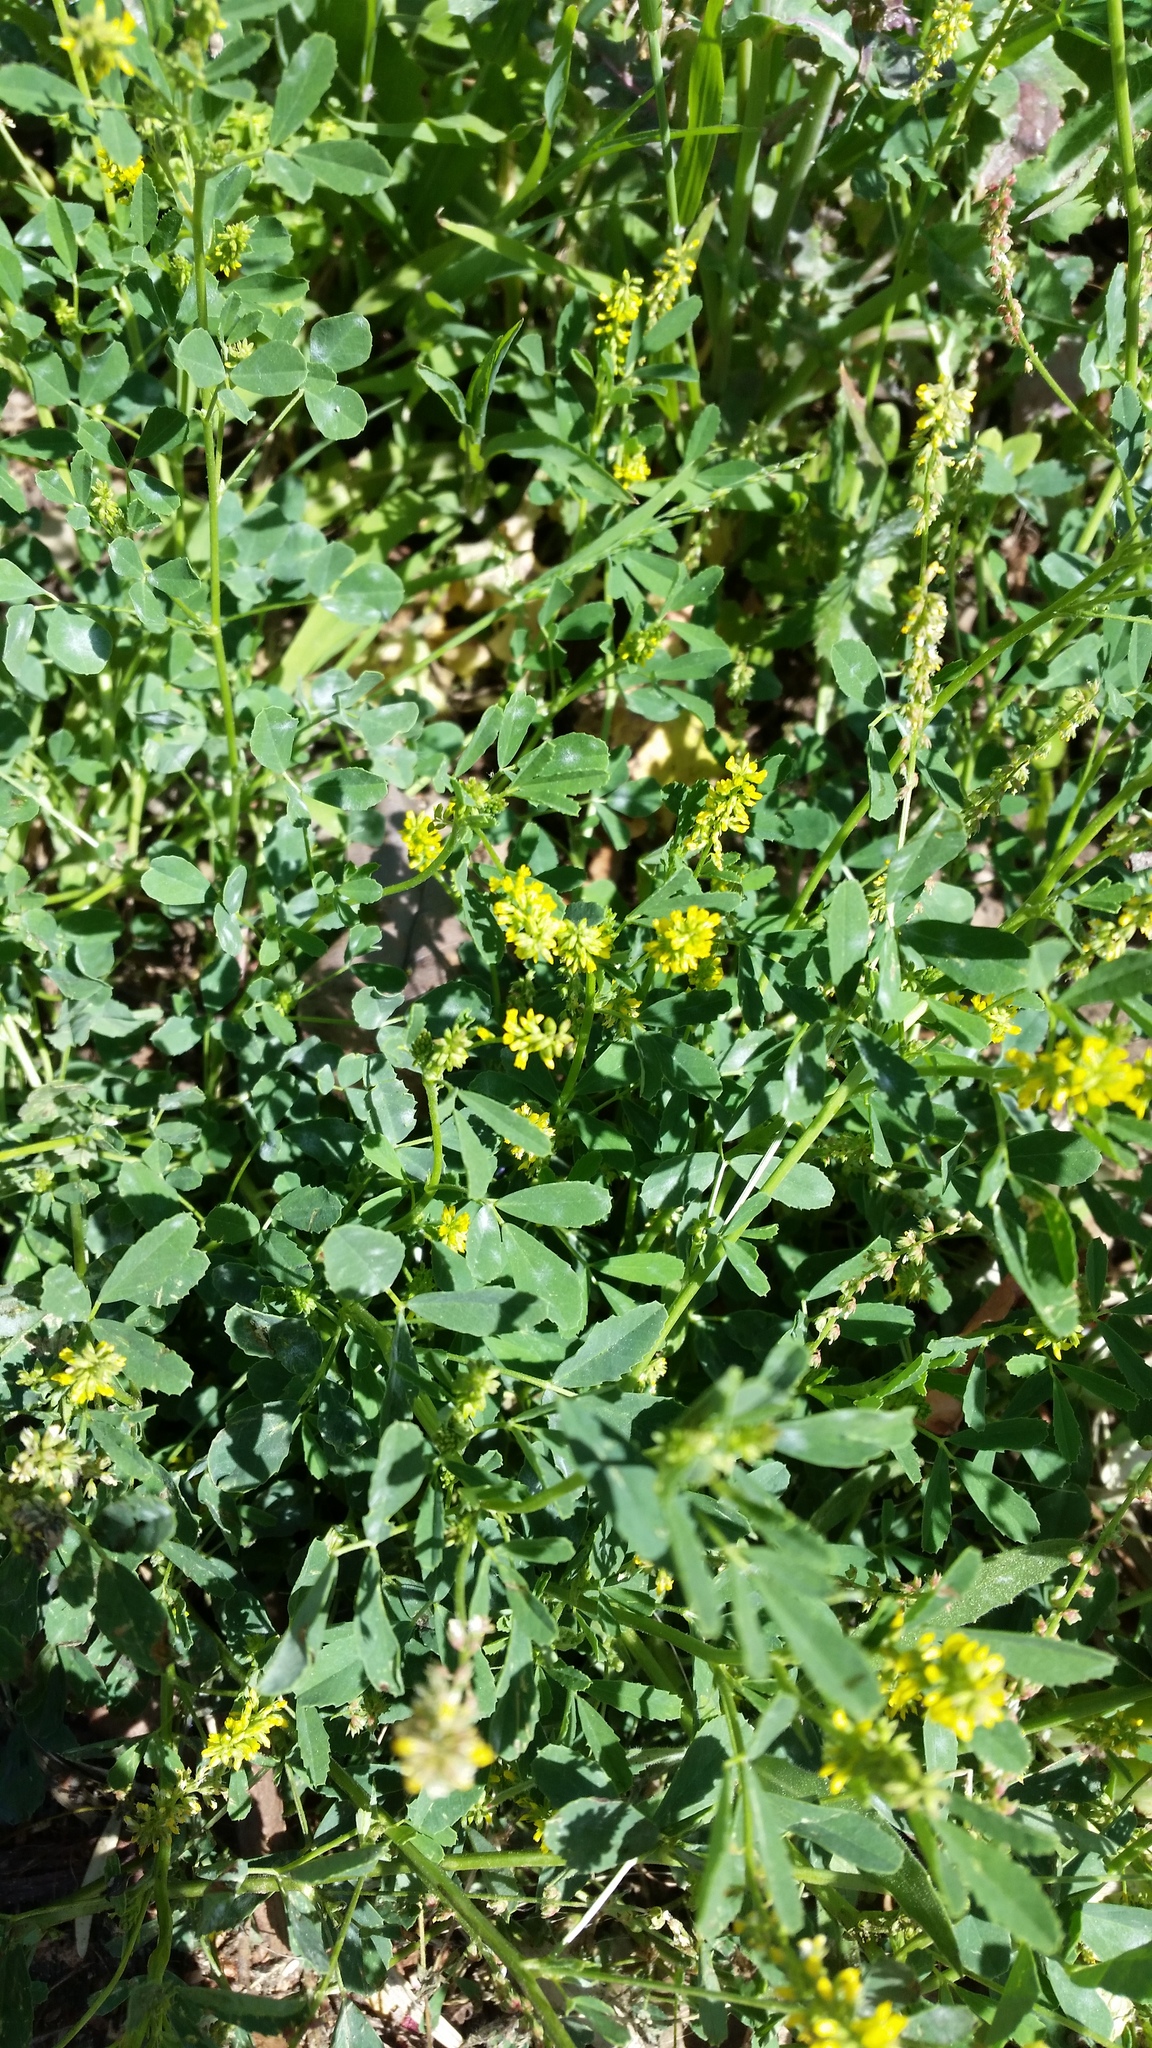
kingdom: Plantae
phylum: Tracheophyta
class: Magnoliopsida
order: Fabales
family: Fabaceae
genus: Melilotus
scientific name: Melilotus indicus
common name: Small melilot
